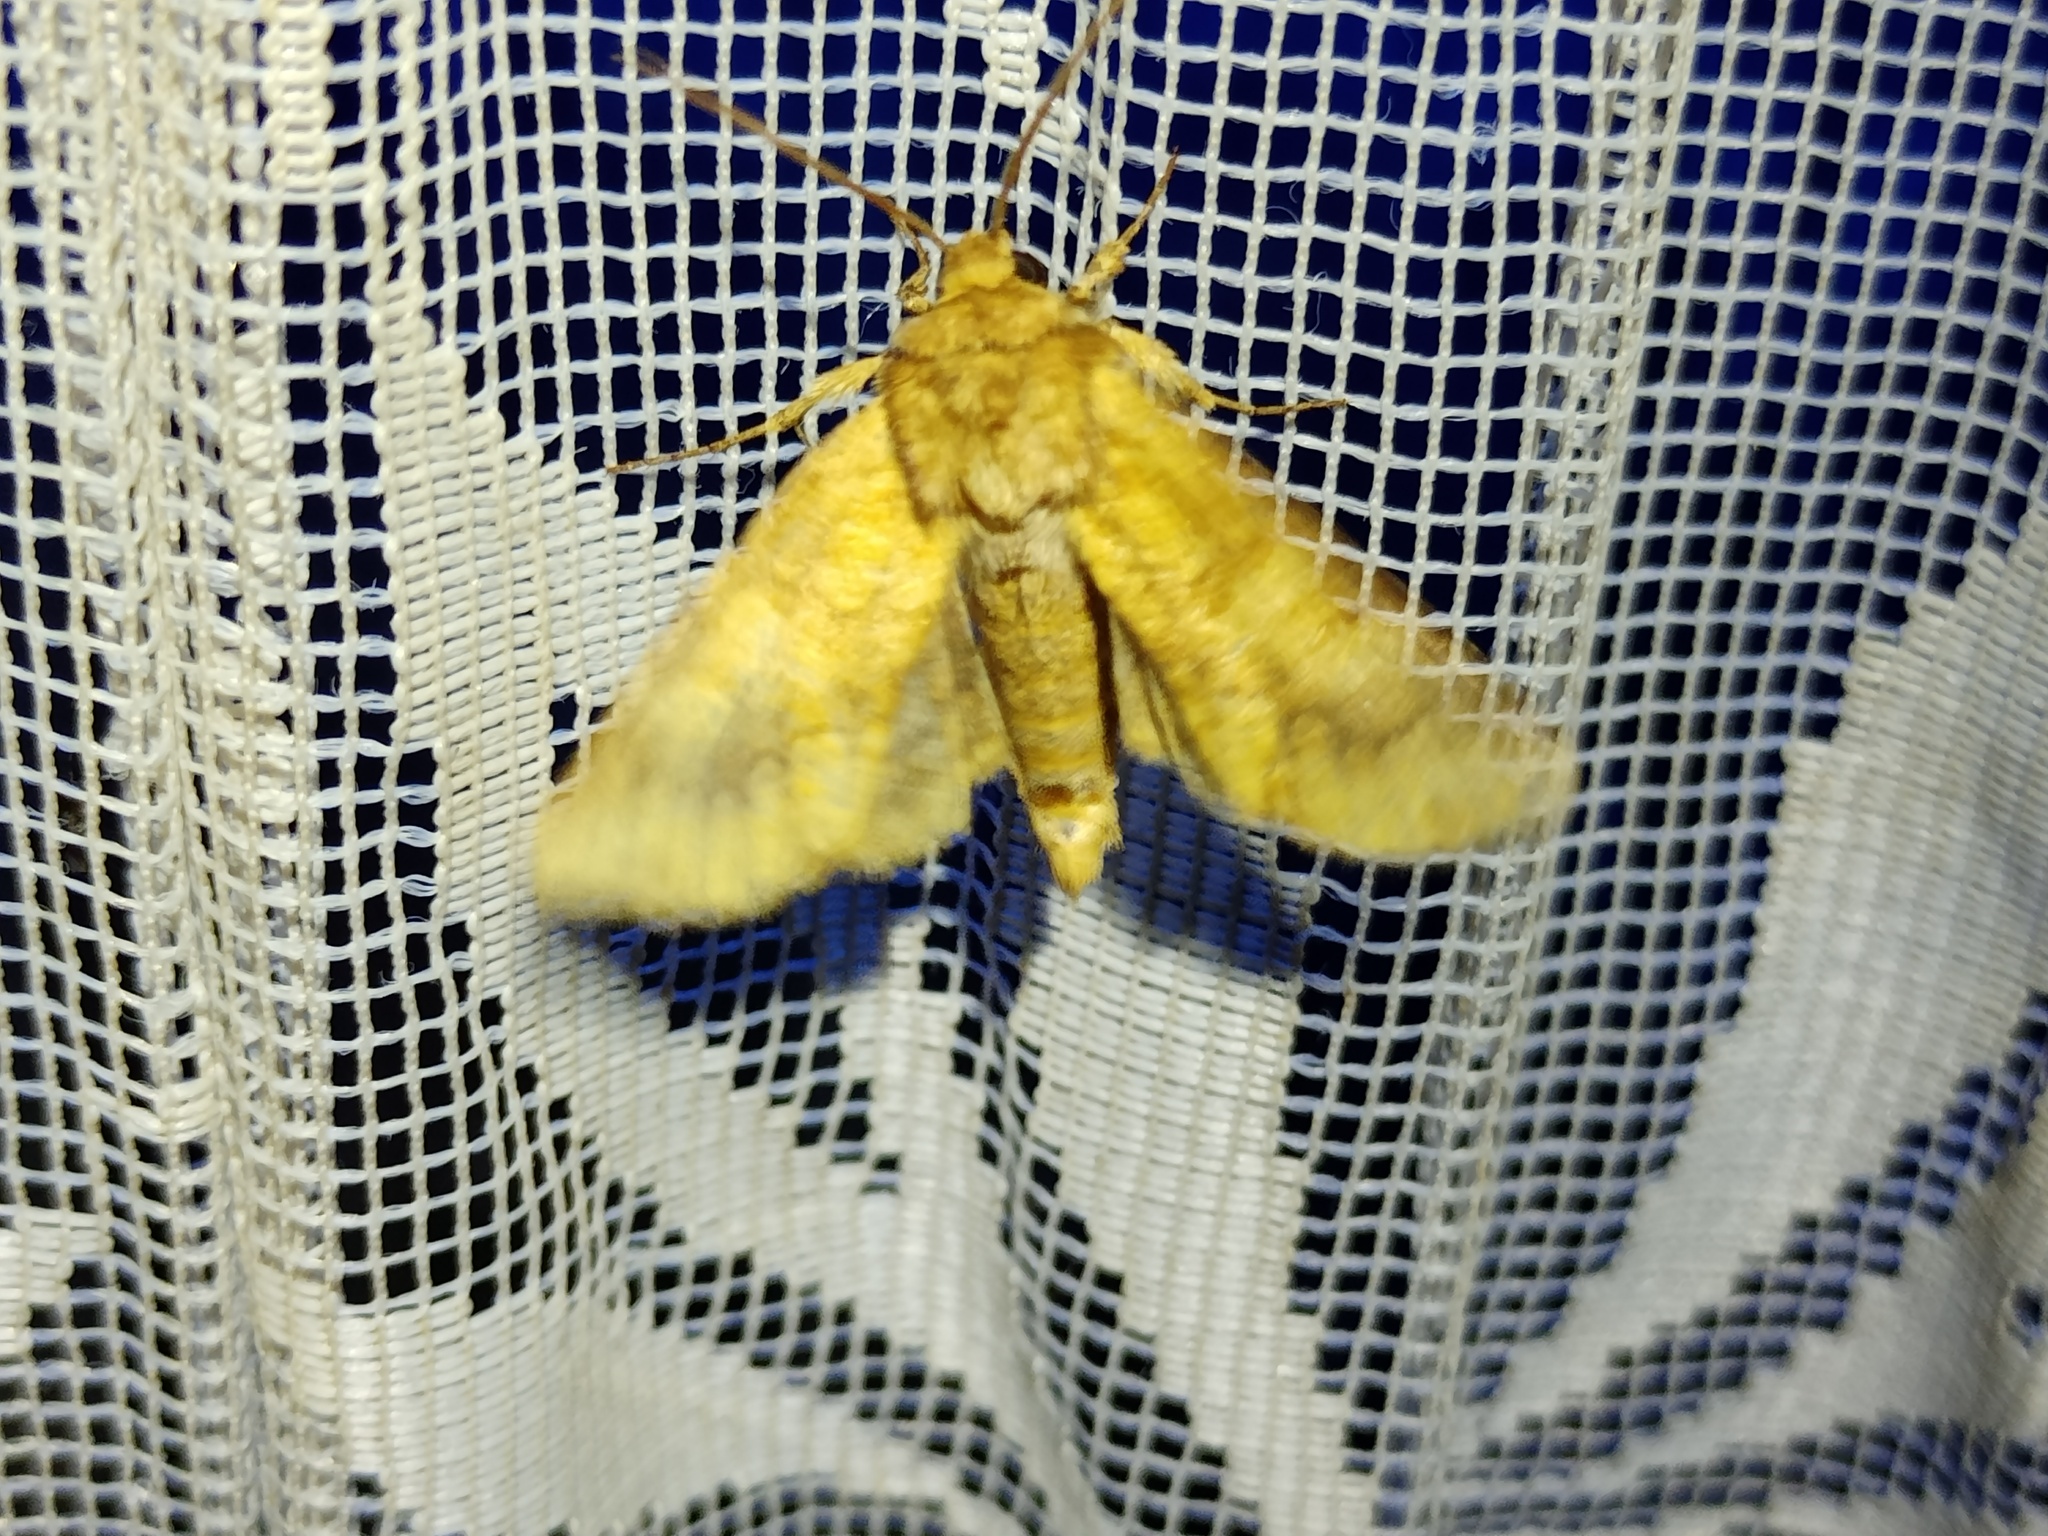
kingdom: Animalia
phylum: Arthropoda
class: Insecta
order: Lepidoptera
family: Noctuidae
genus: Conisania
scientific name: Conisania luteago
